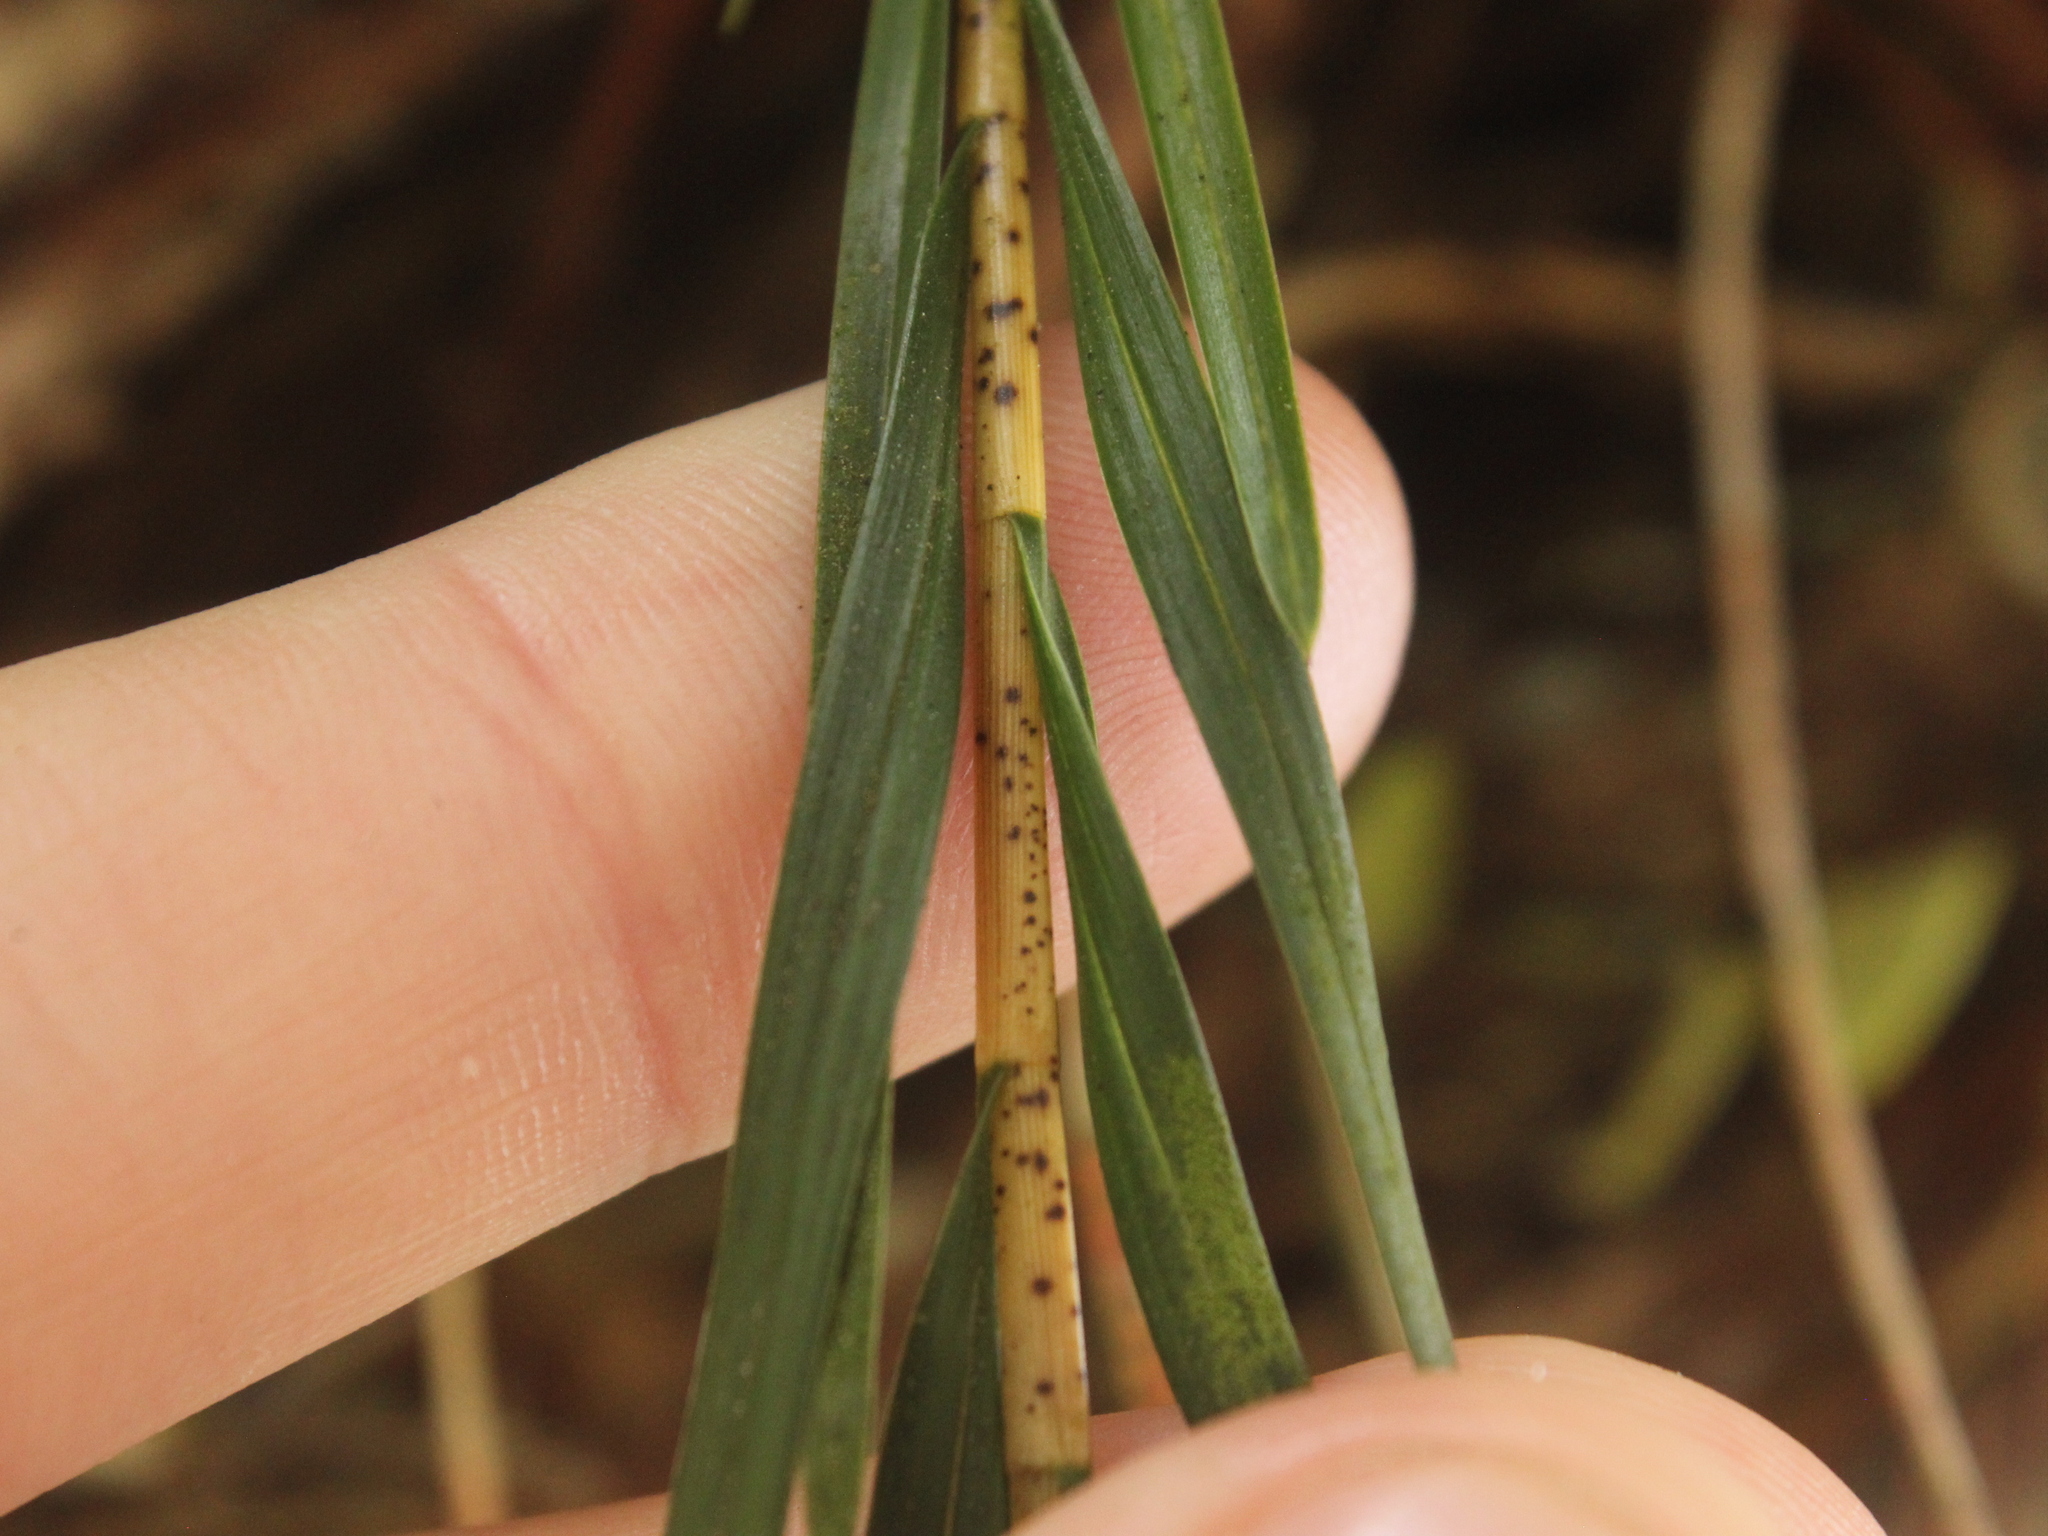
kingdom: Plantae
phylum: Tracheophyta
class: Liliopsida
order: Asparagales
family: Orchidaceae
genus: Earina
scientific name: Earina aestivalis
